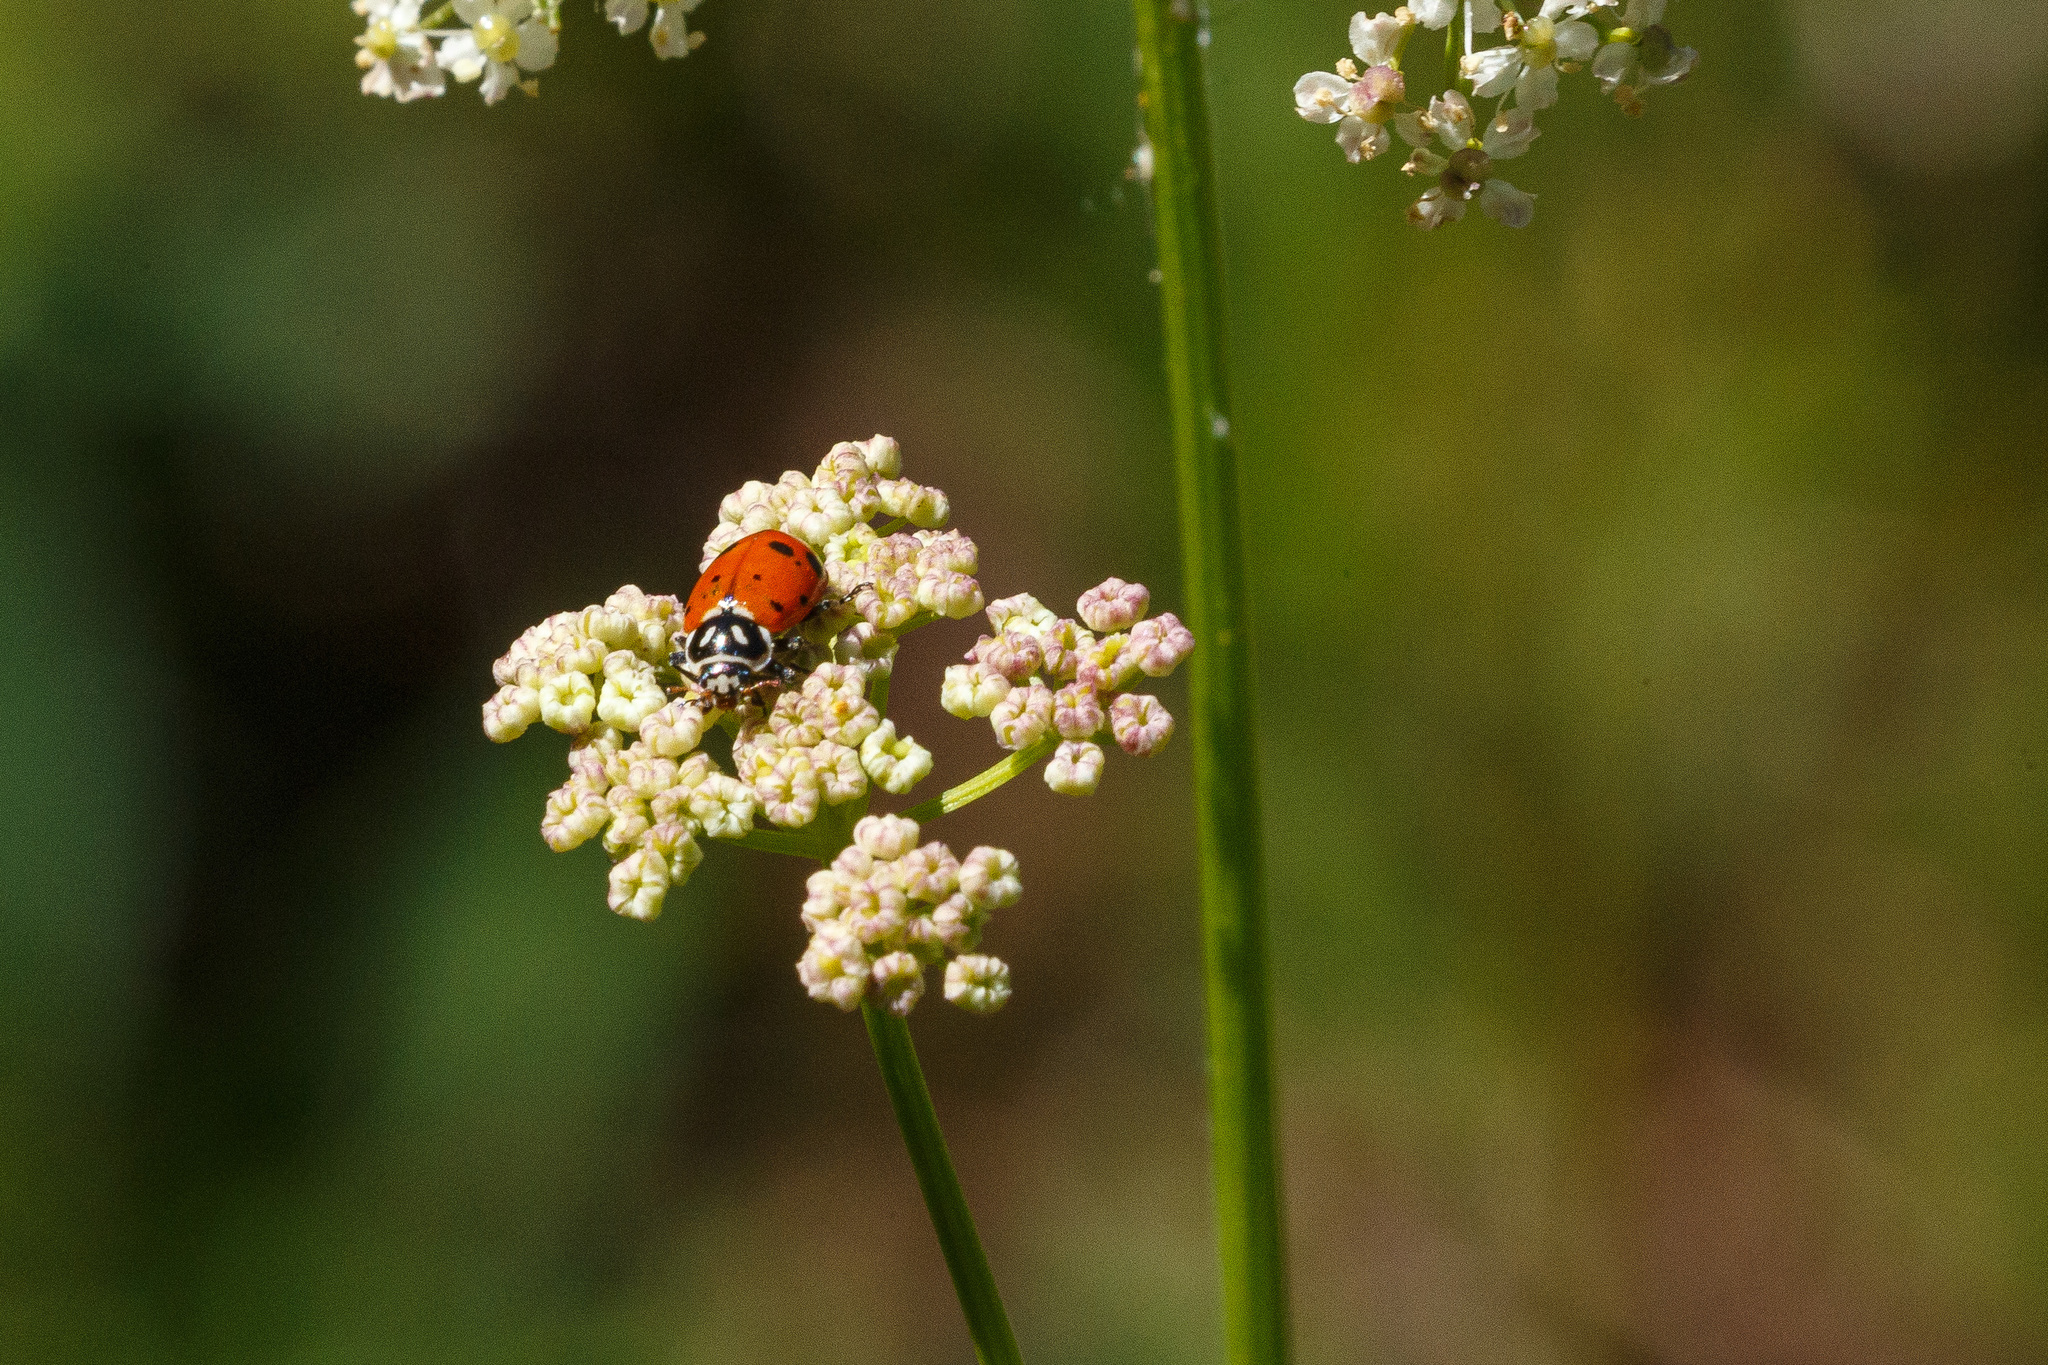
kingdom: Animalia
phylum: Arthropoda
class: Insecta
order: Coleoptera
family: Coccinellidae
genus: Hippodamia
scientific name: Hippodamia convergens
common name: Convergent lady beetle
